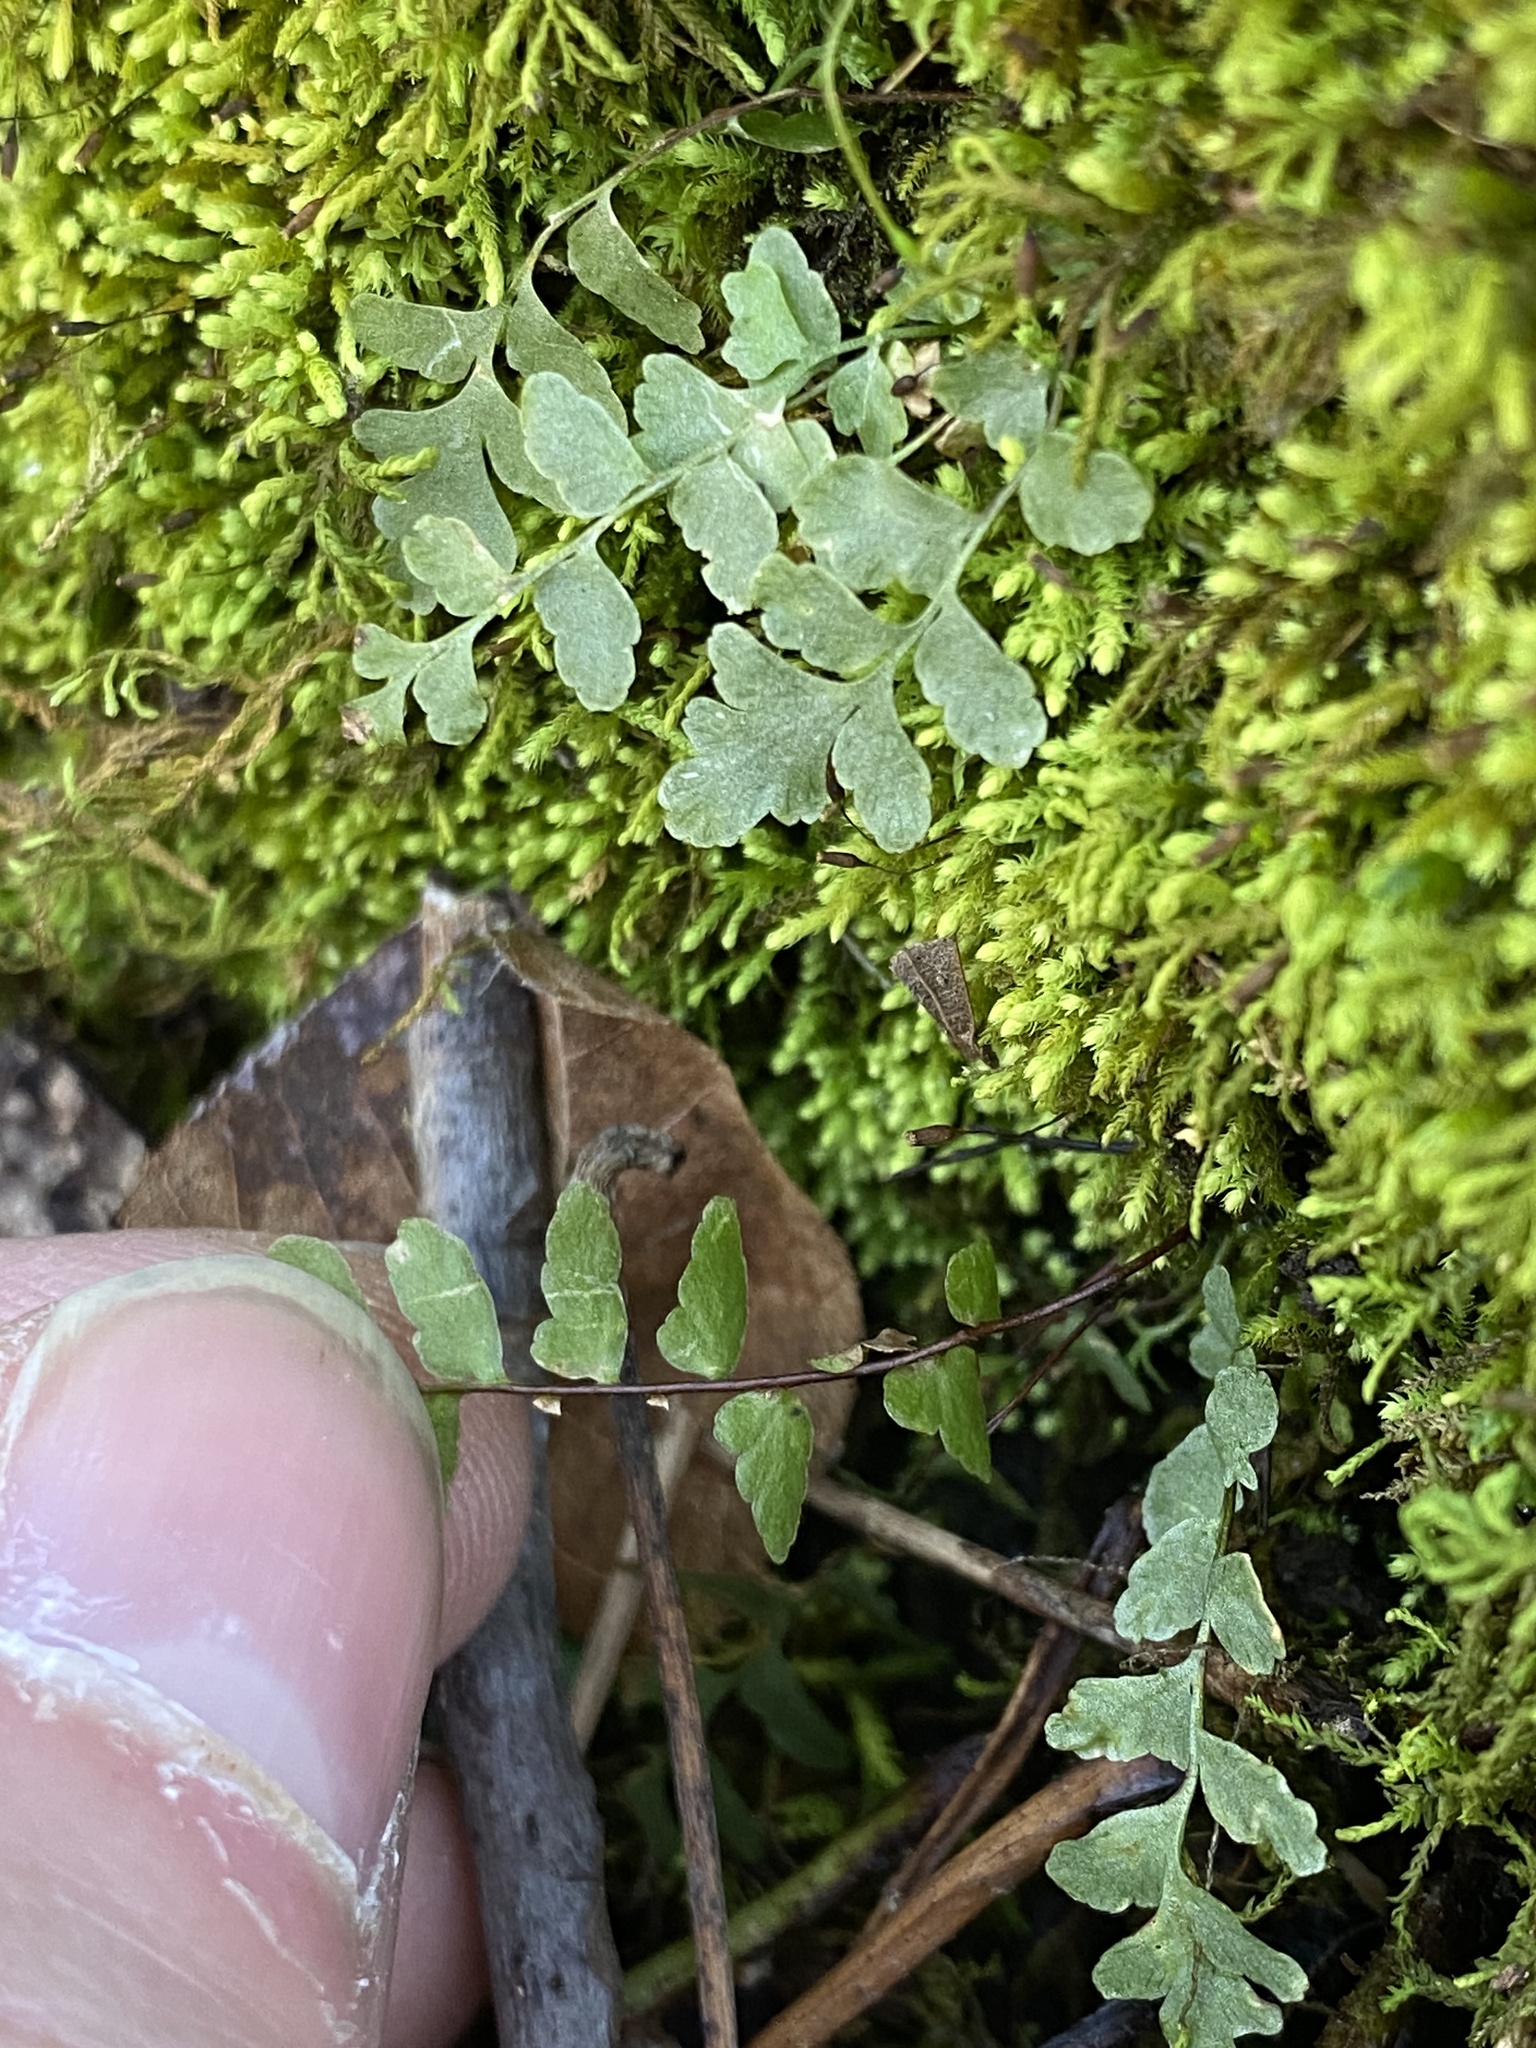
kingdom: Plantae
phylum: Tracheophyta
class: Polypodiopsida
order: Polypodiales
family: Aspleniaceae
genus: Asplenium
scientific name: Asplenium platyneuron
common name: Ebony spleenwort
